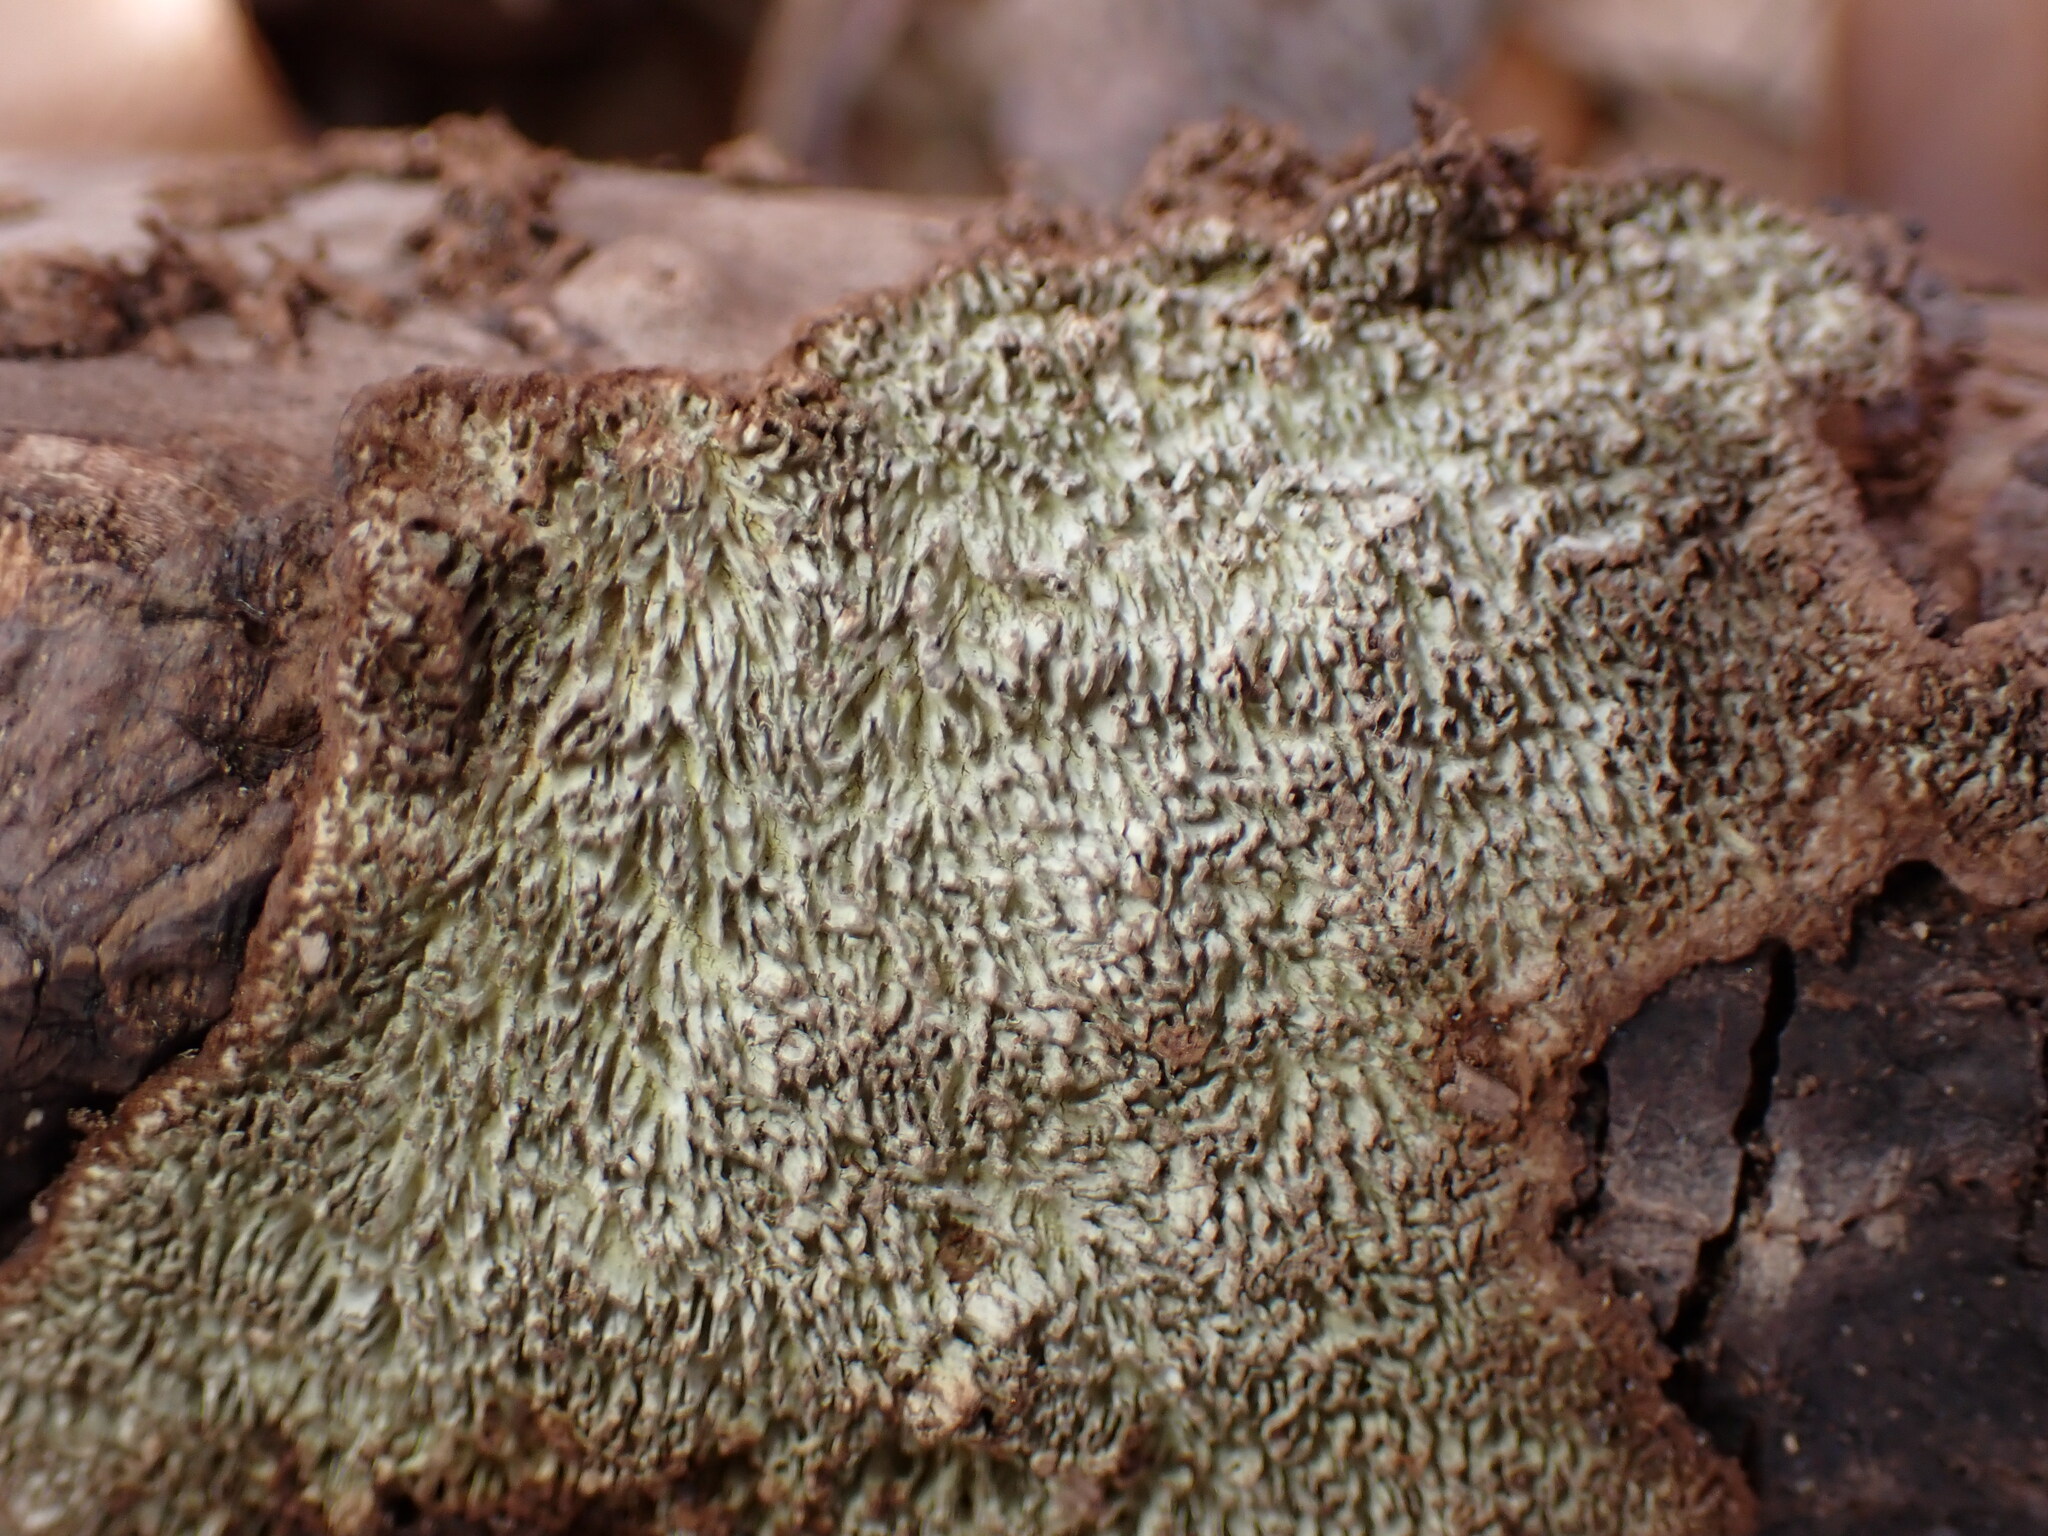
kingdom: Fungi
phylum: Basidiomycota
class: Agaricomycetes
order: Polyporales
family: Polyporaceae
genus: Dentocorticium
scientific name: Dentocorticium portoricense
